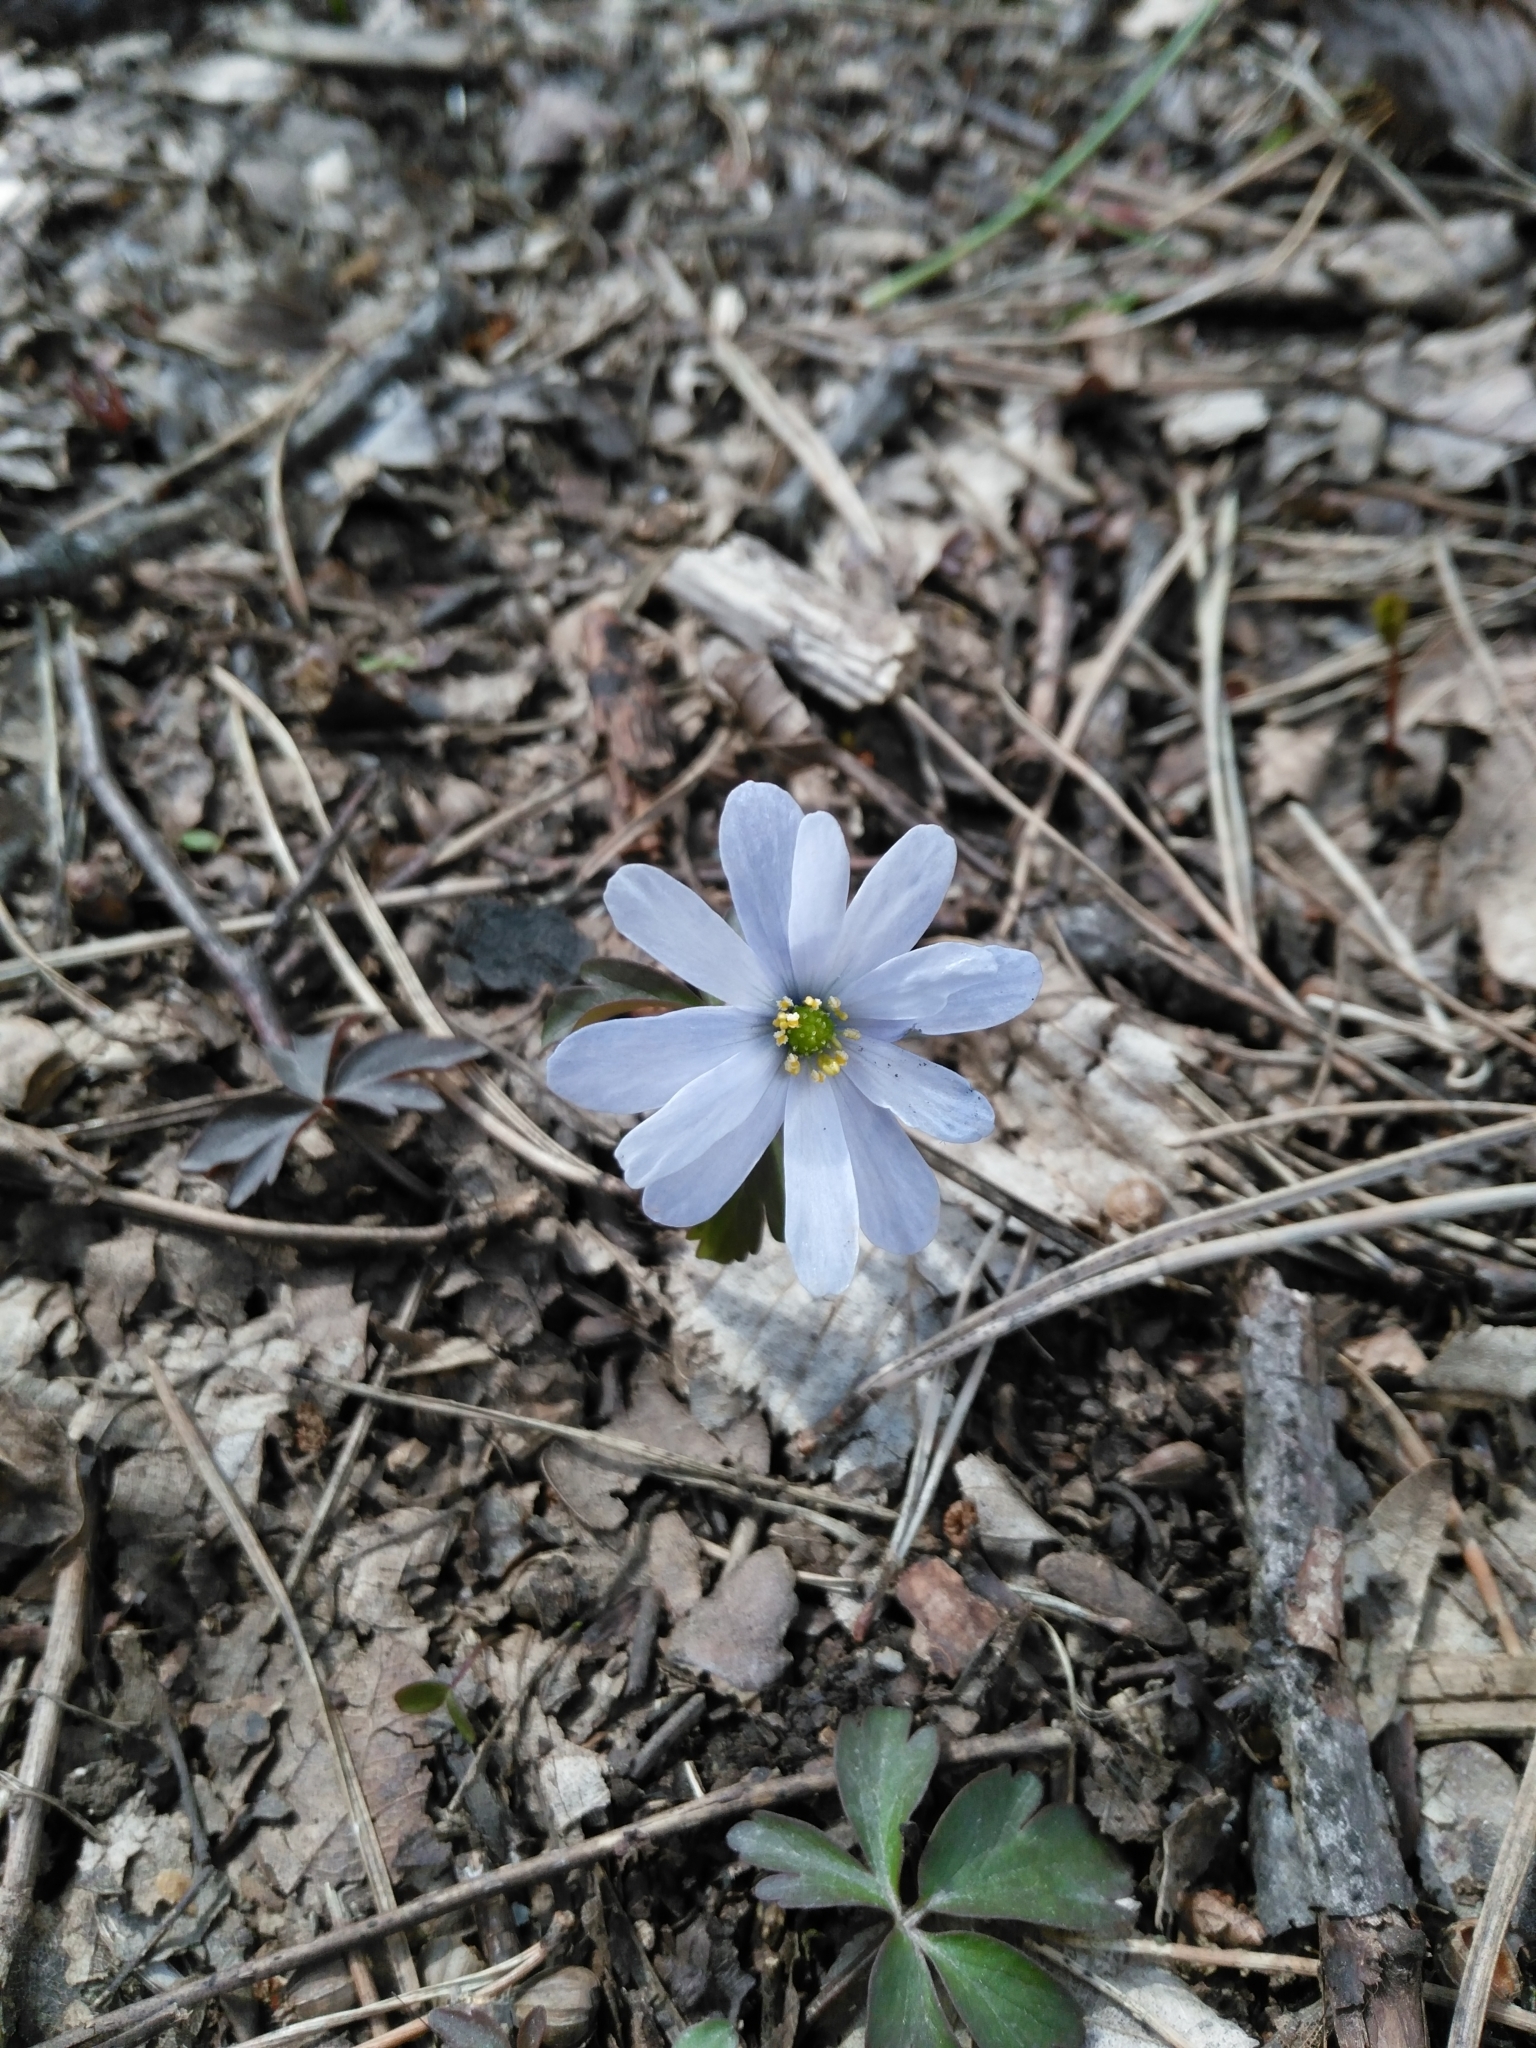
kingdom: Plantae
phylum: Tracheophyta
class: Magnoliopsida
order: Ranunculales
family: Ranunculaceae
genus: Anemone
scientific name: Anemone caucasica
